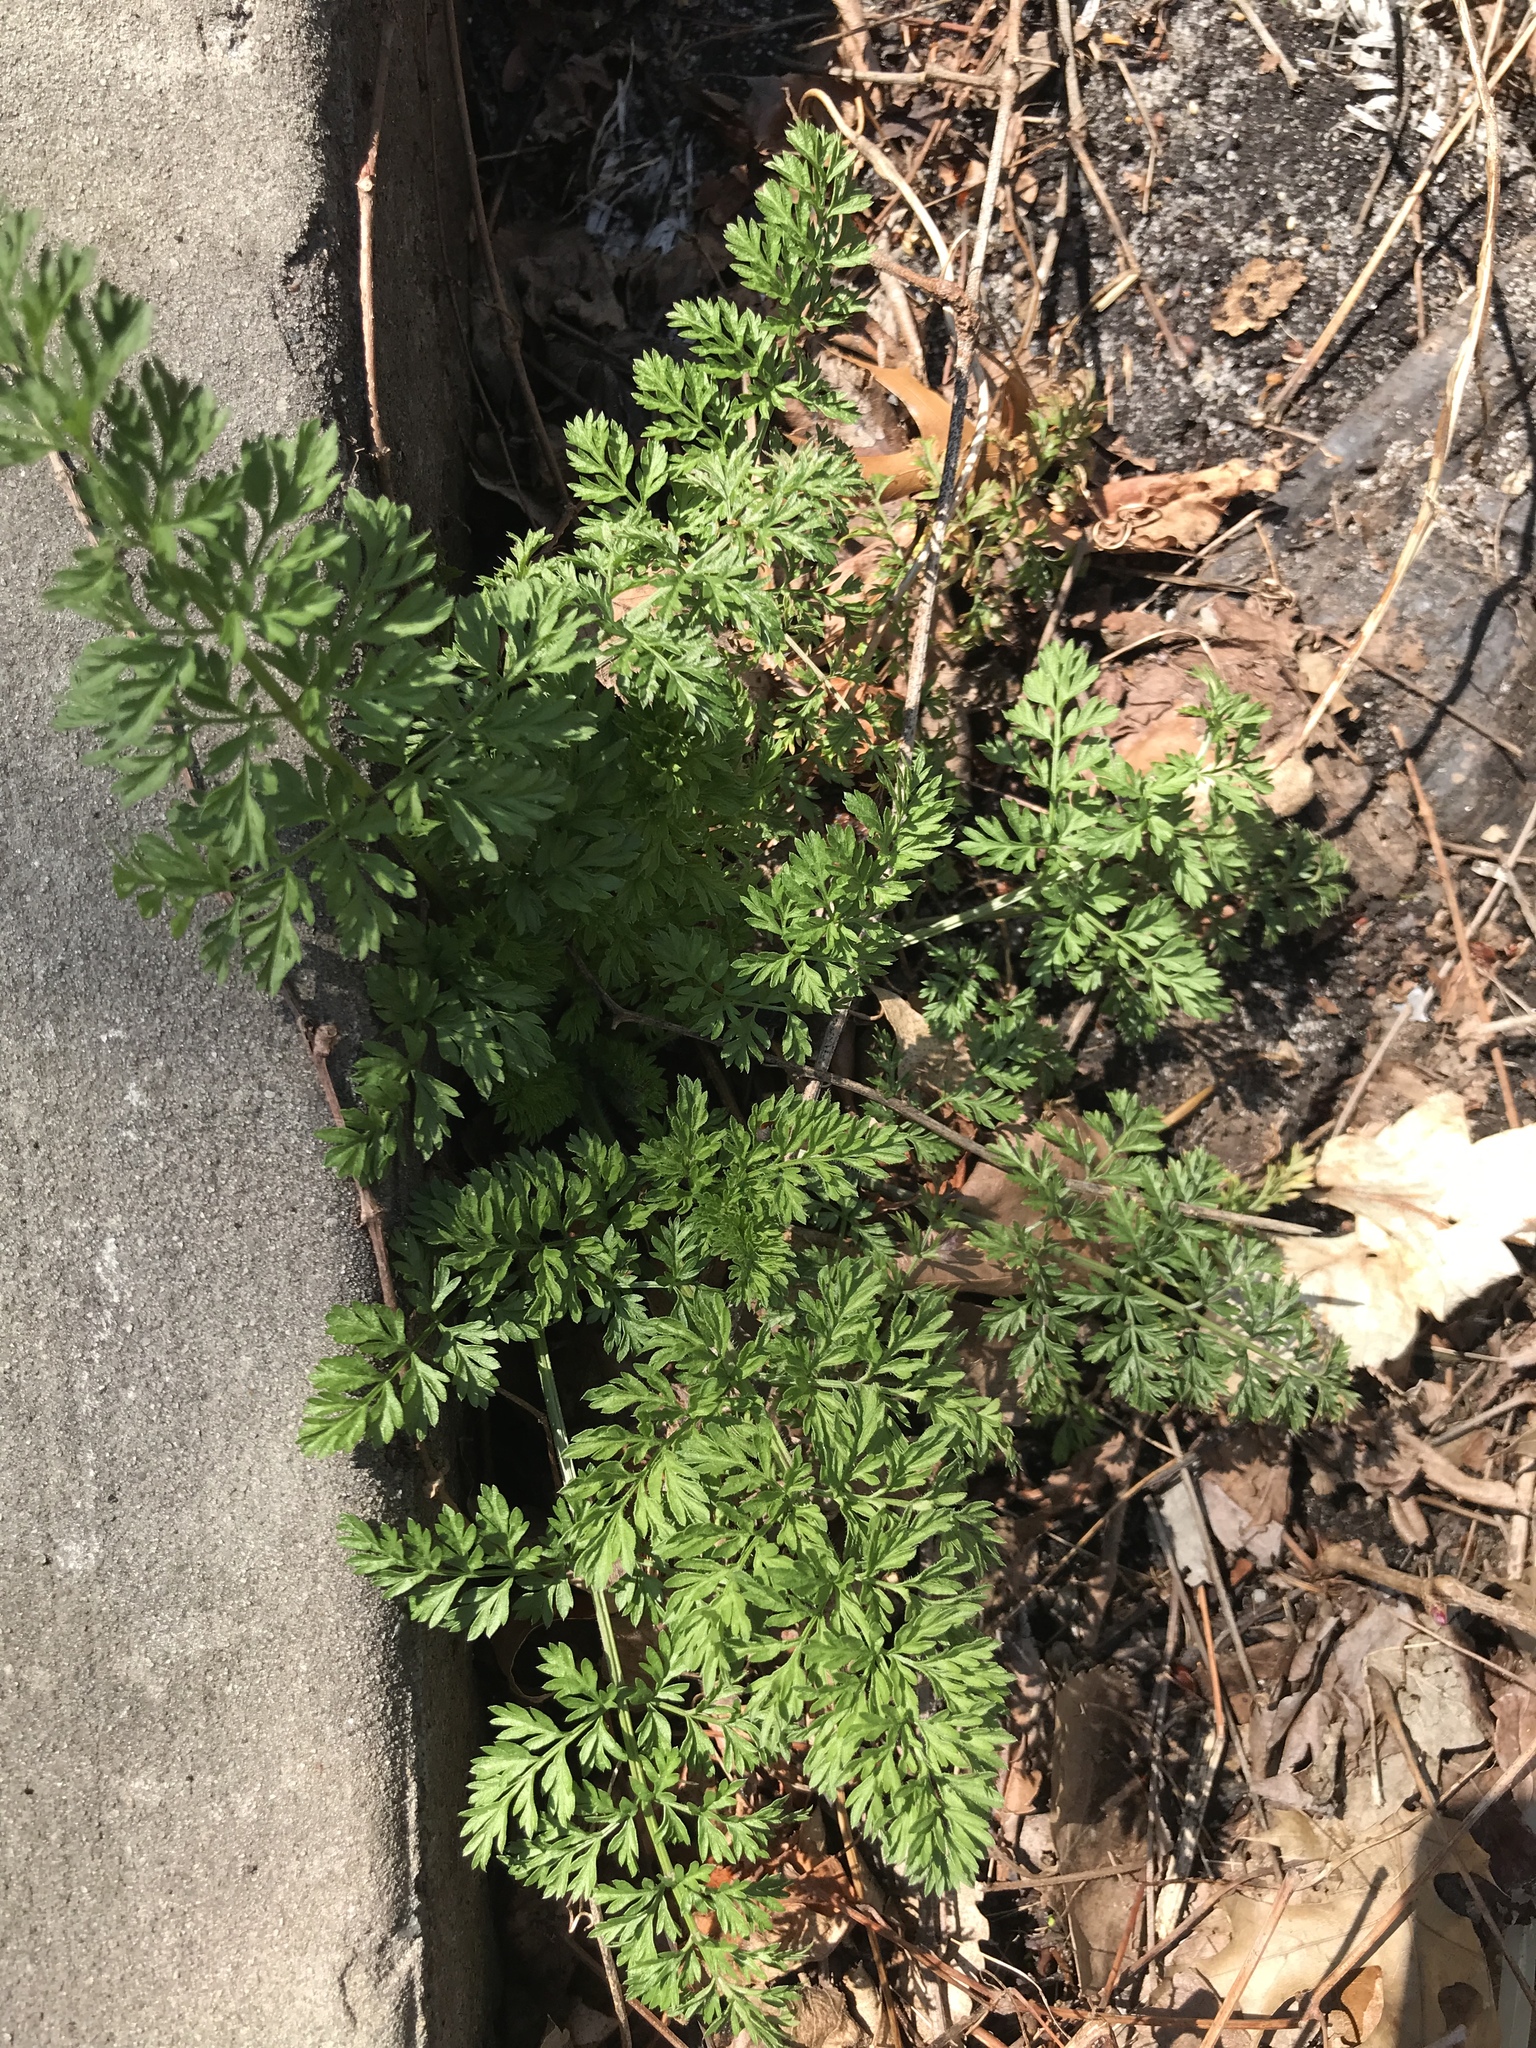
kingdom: Plantae
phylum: Tracheophyta
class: Magnoliopsida
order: Apiales
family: Apiaceae
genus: Daucus
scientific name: Daucus carota
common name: Wild carrot
